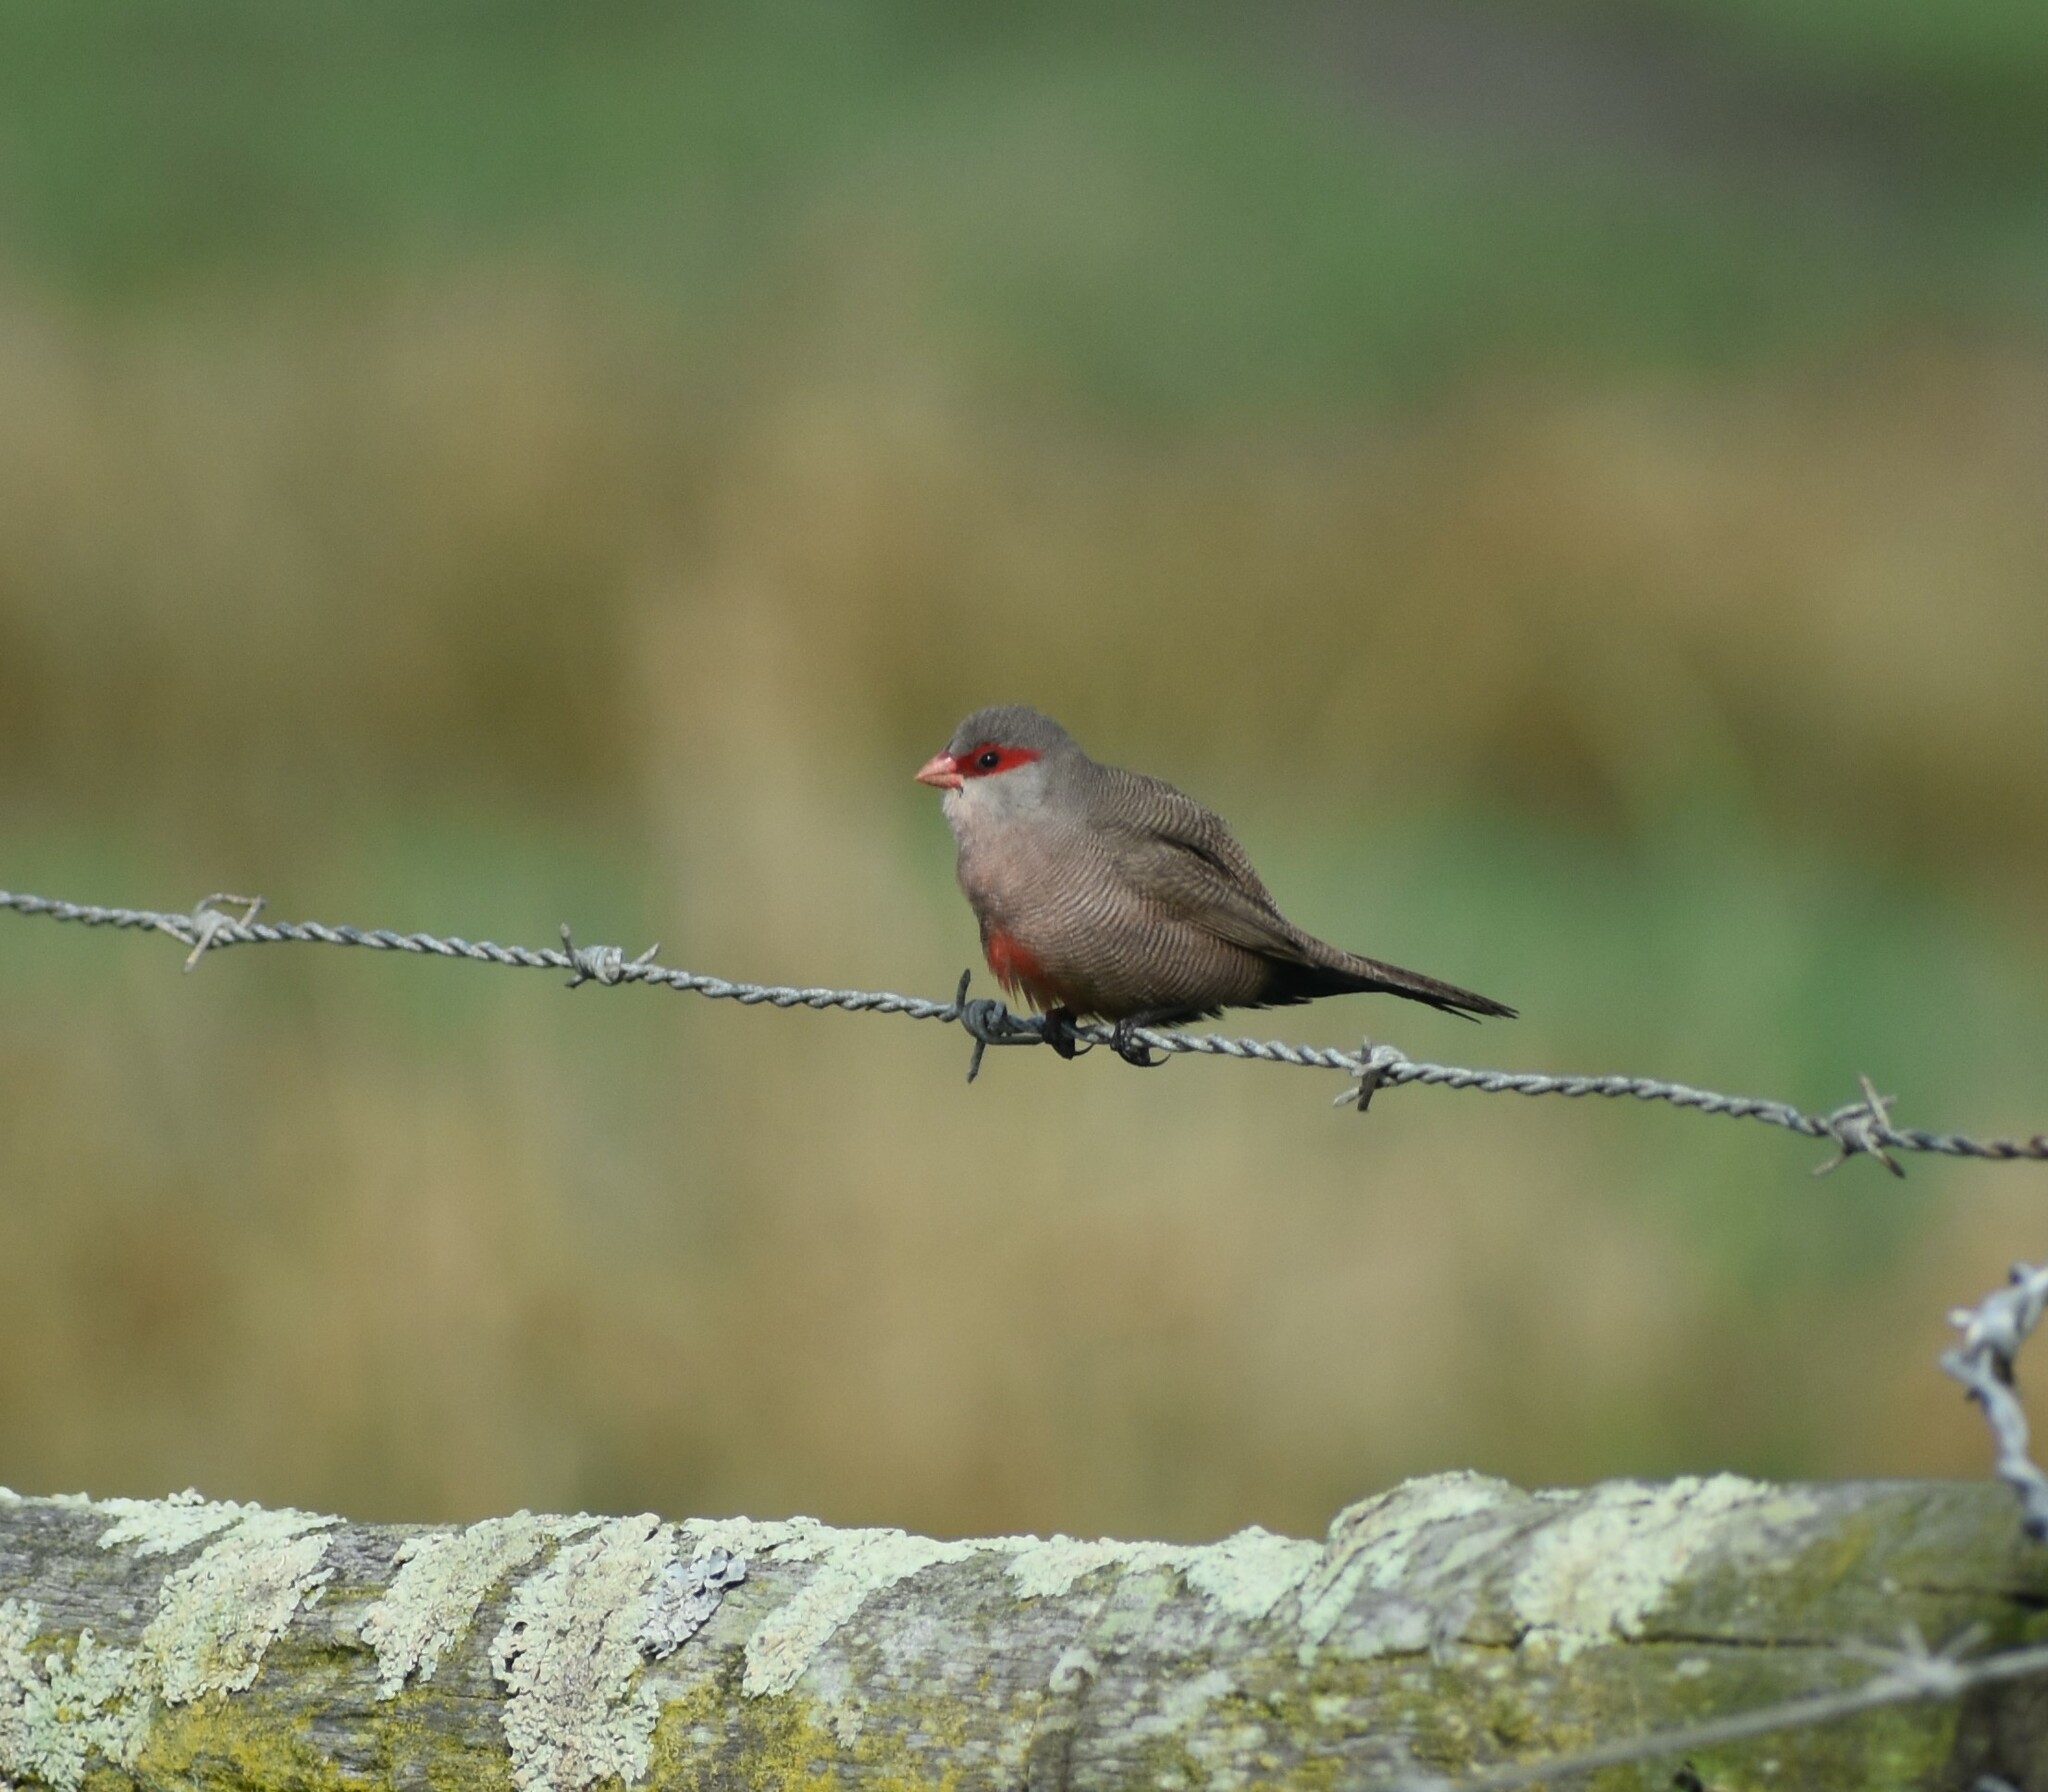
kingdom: Animalia
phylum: Chordata
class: Aves
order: Passeriformes
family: Estrildidae
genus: Estrilda
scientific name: Estrilda astrild
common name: Common waxbill
